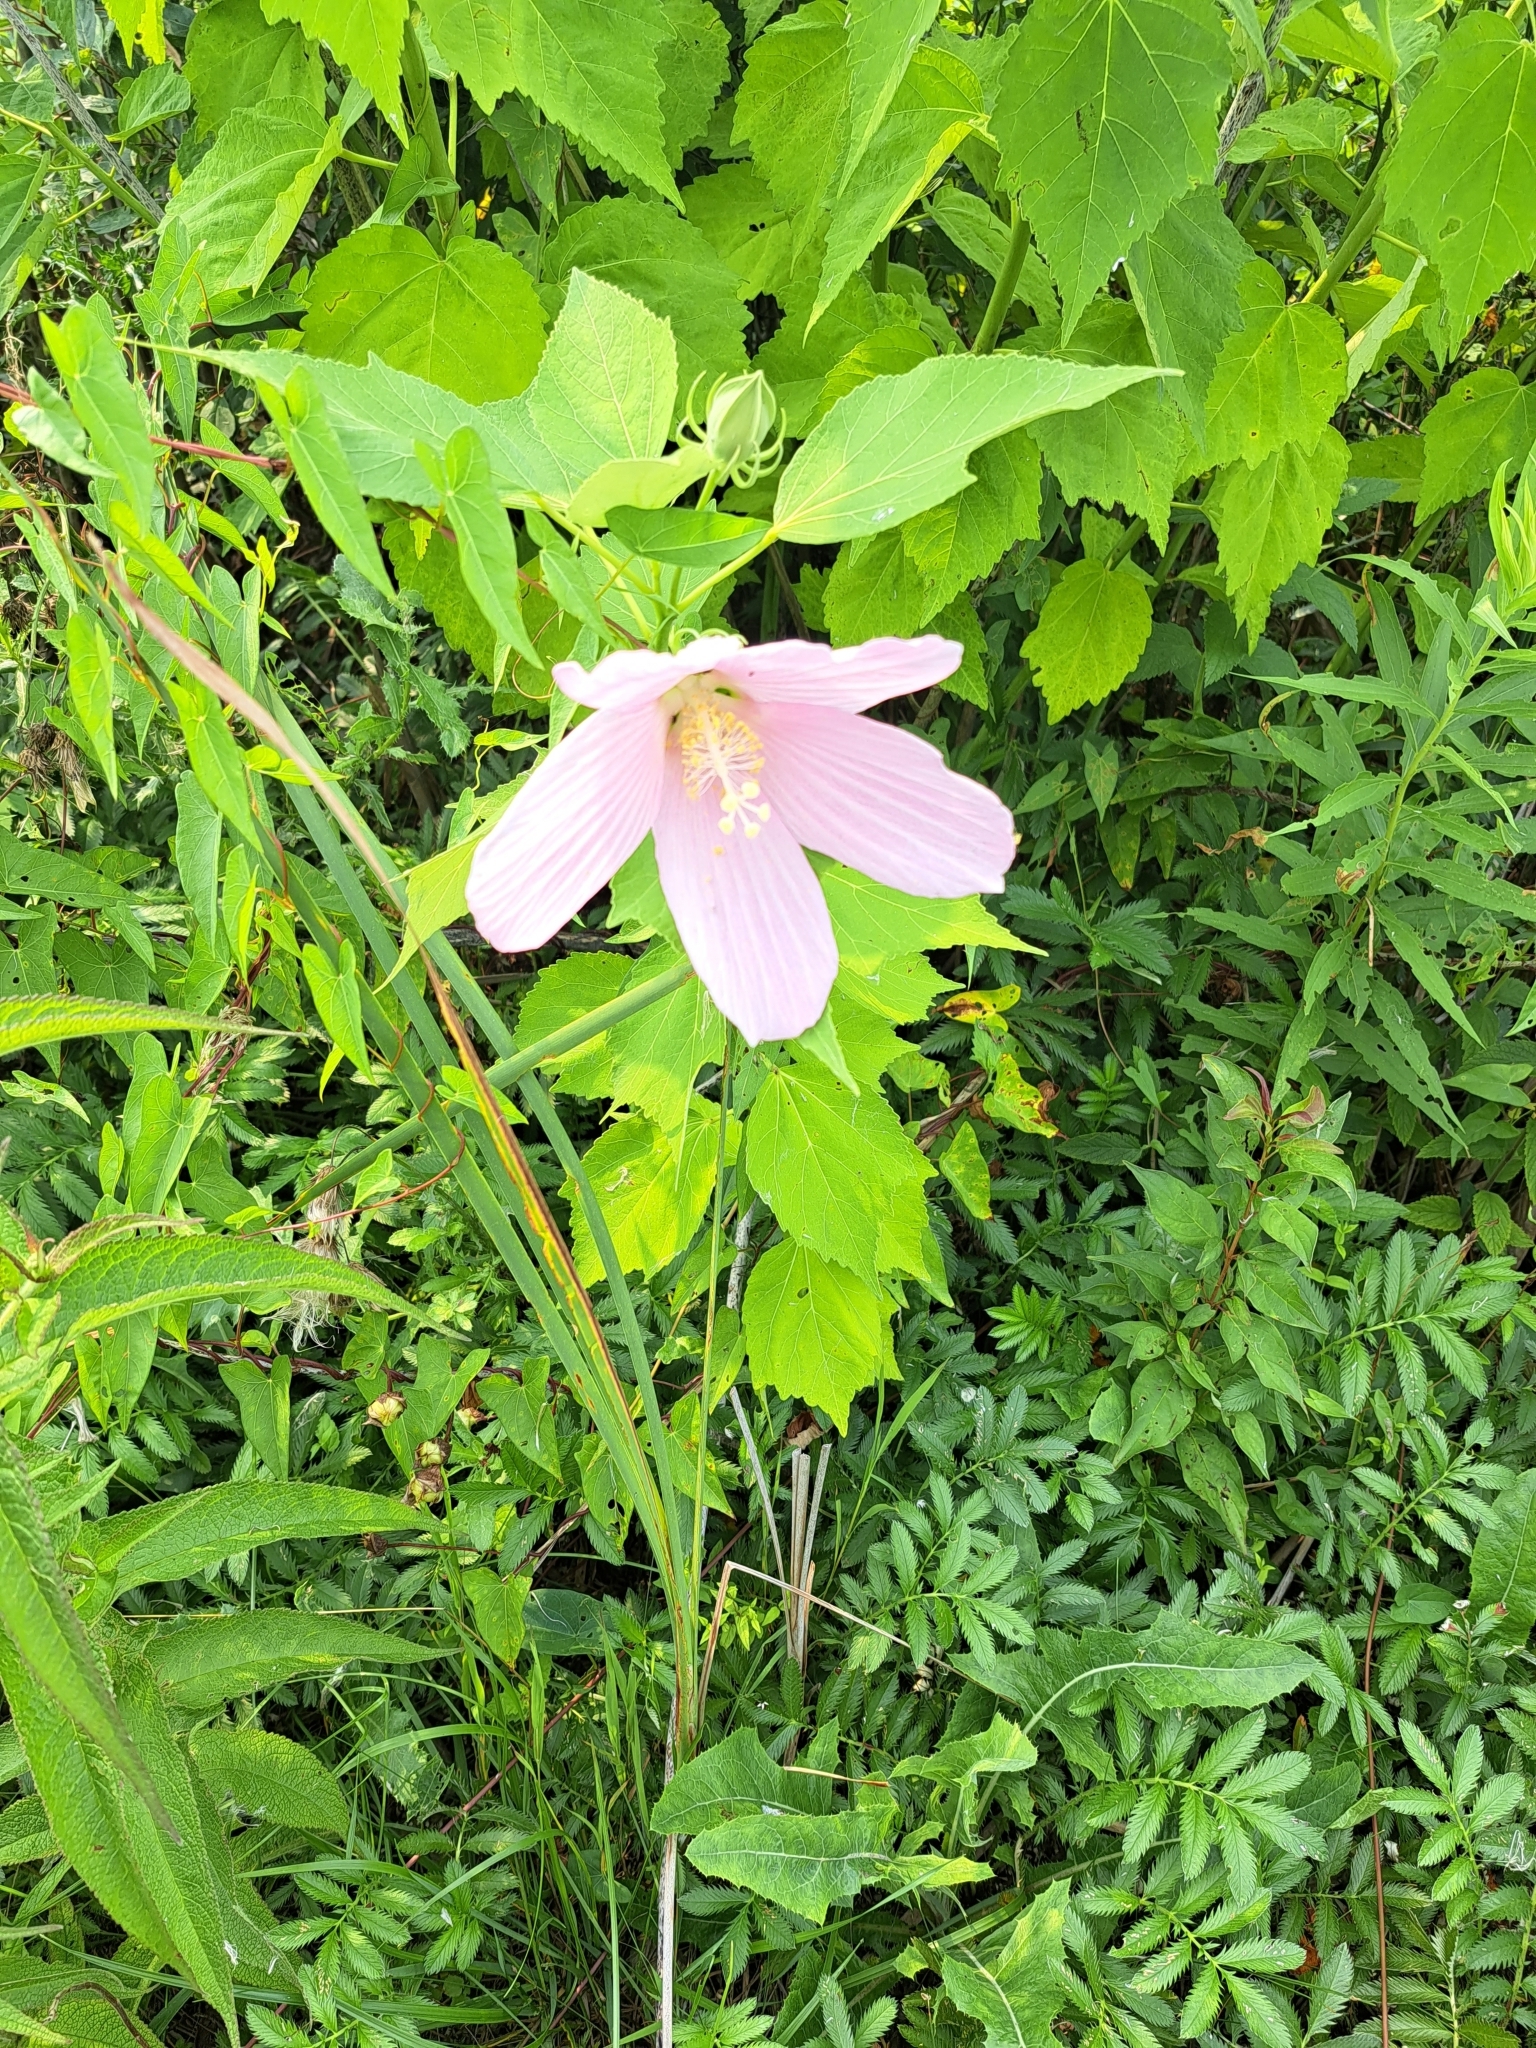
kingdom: Plantae
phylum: Tracheophyta
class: Magnoliopsida
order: Malvales
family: Malvaceae
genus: Hibiscus
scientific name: Hibiscus moscheutos
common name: Common rose-mallow
